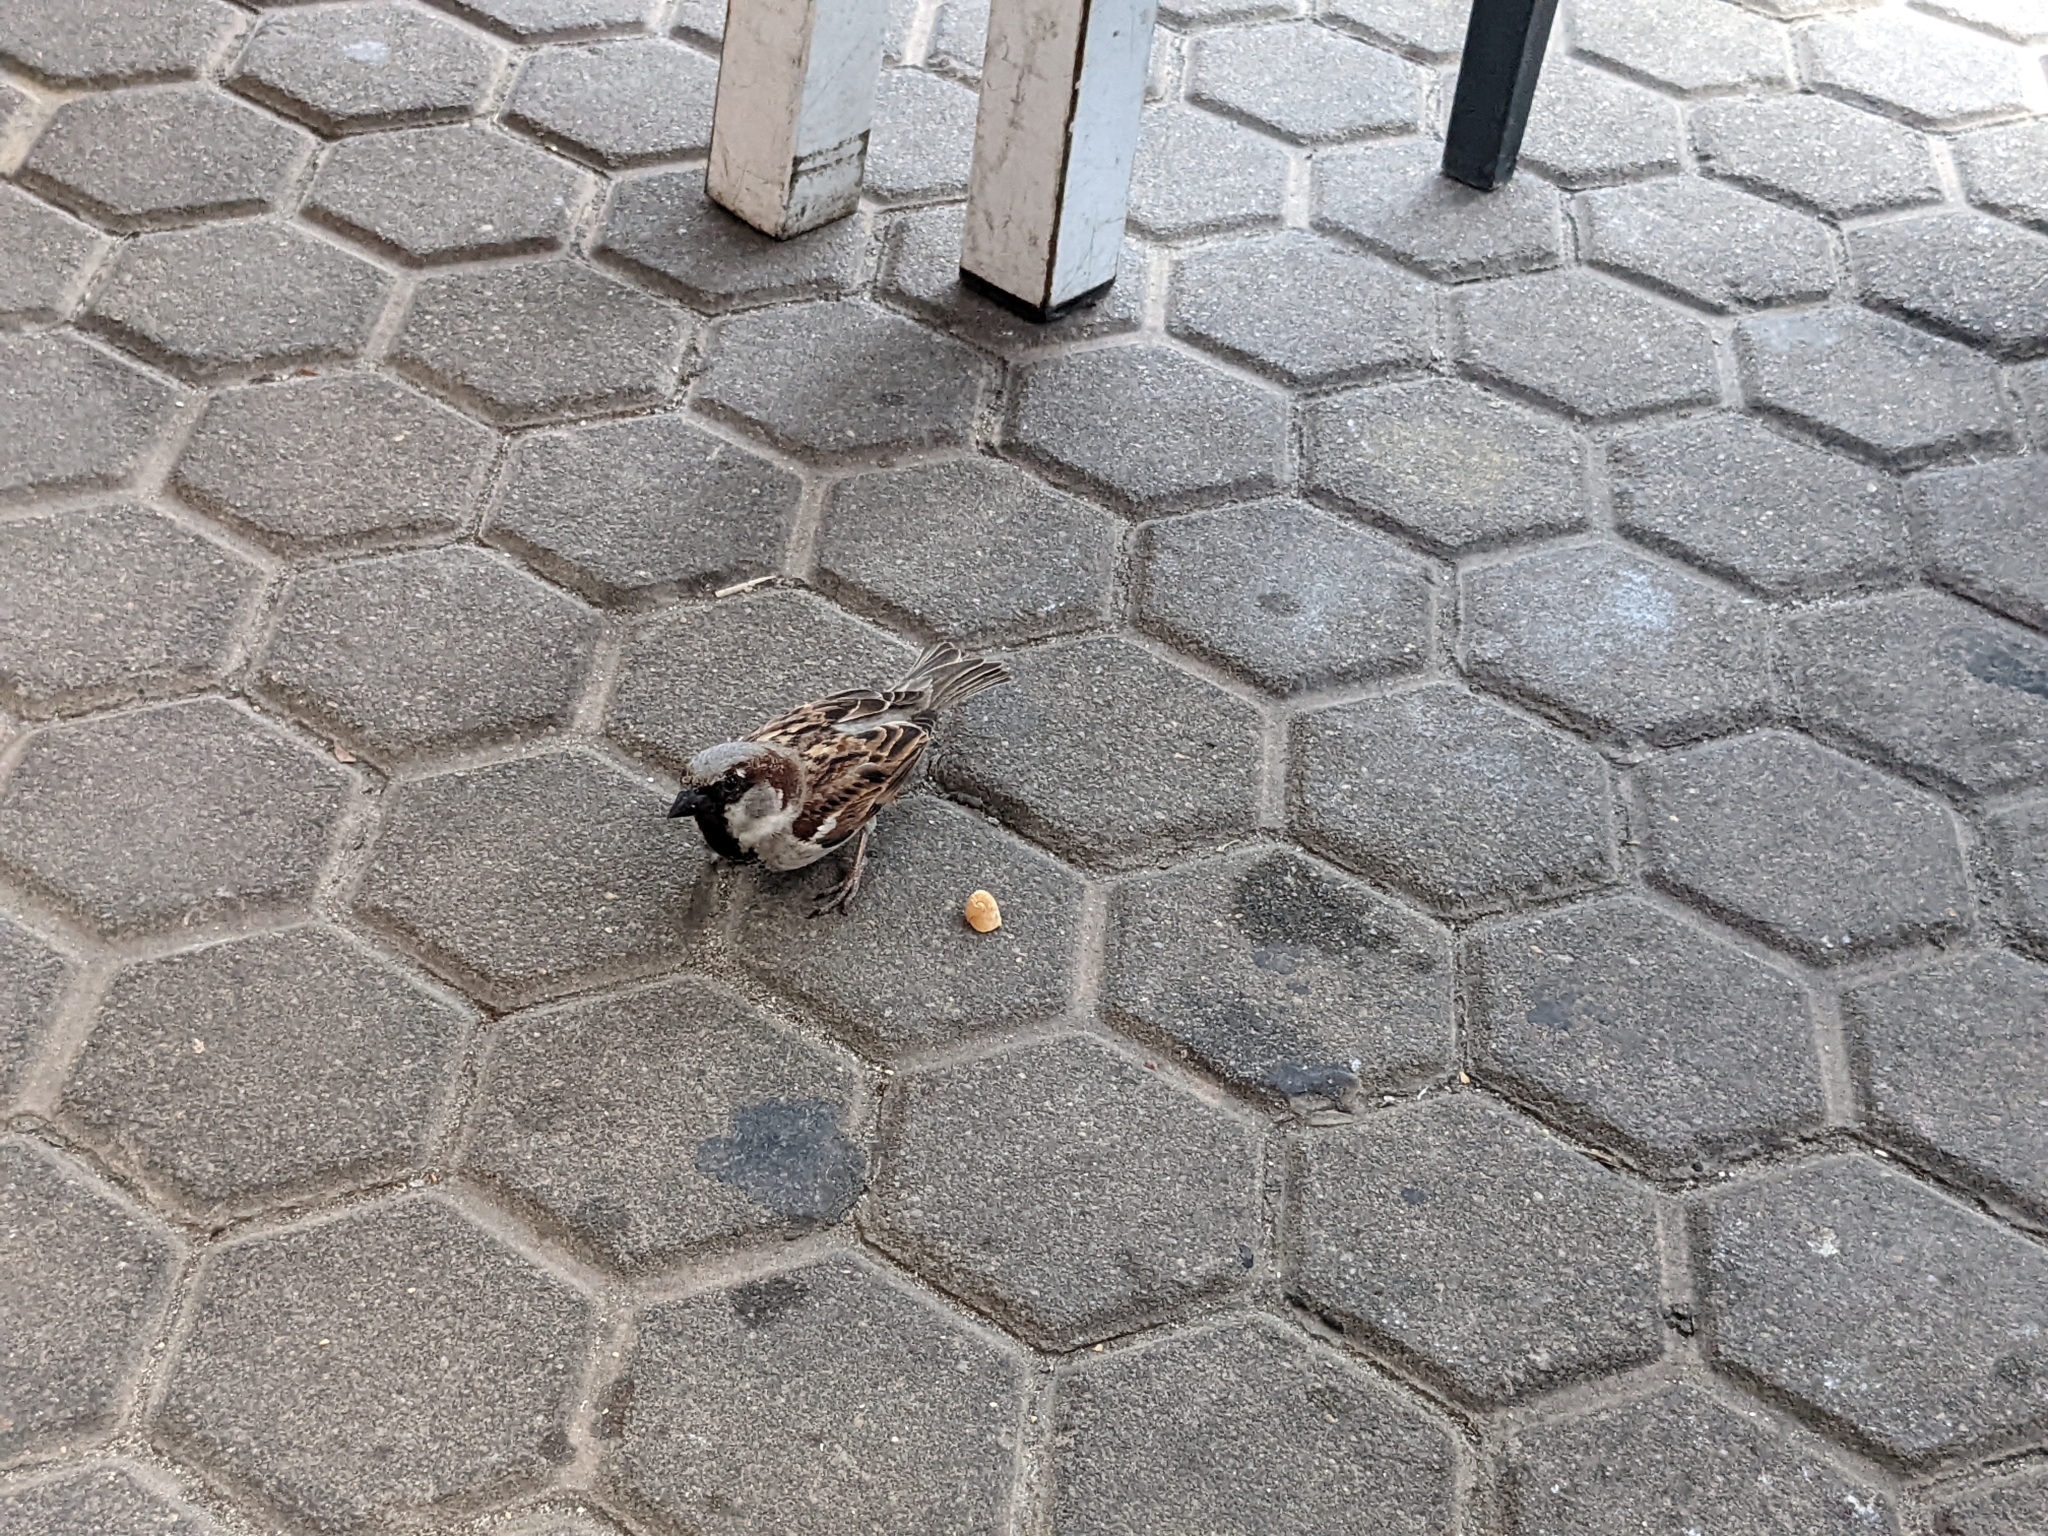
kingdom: Animalia
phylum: Chordata
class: Aves
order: Passeriformes
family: Passeridae
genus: Passer
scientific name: Passer domesticus
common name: House sparrow
